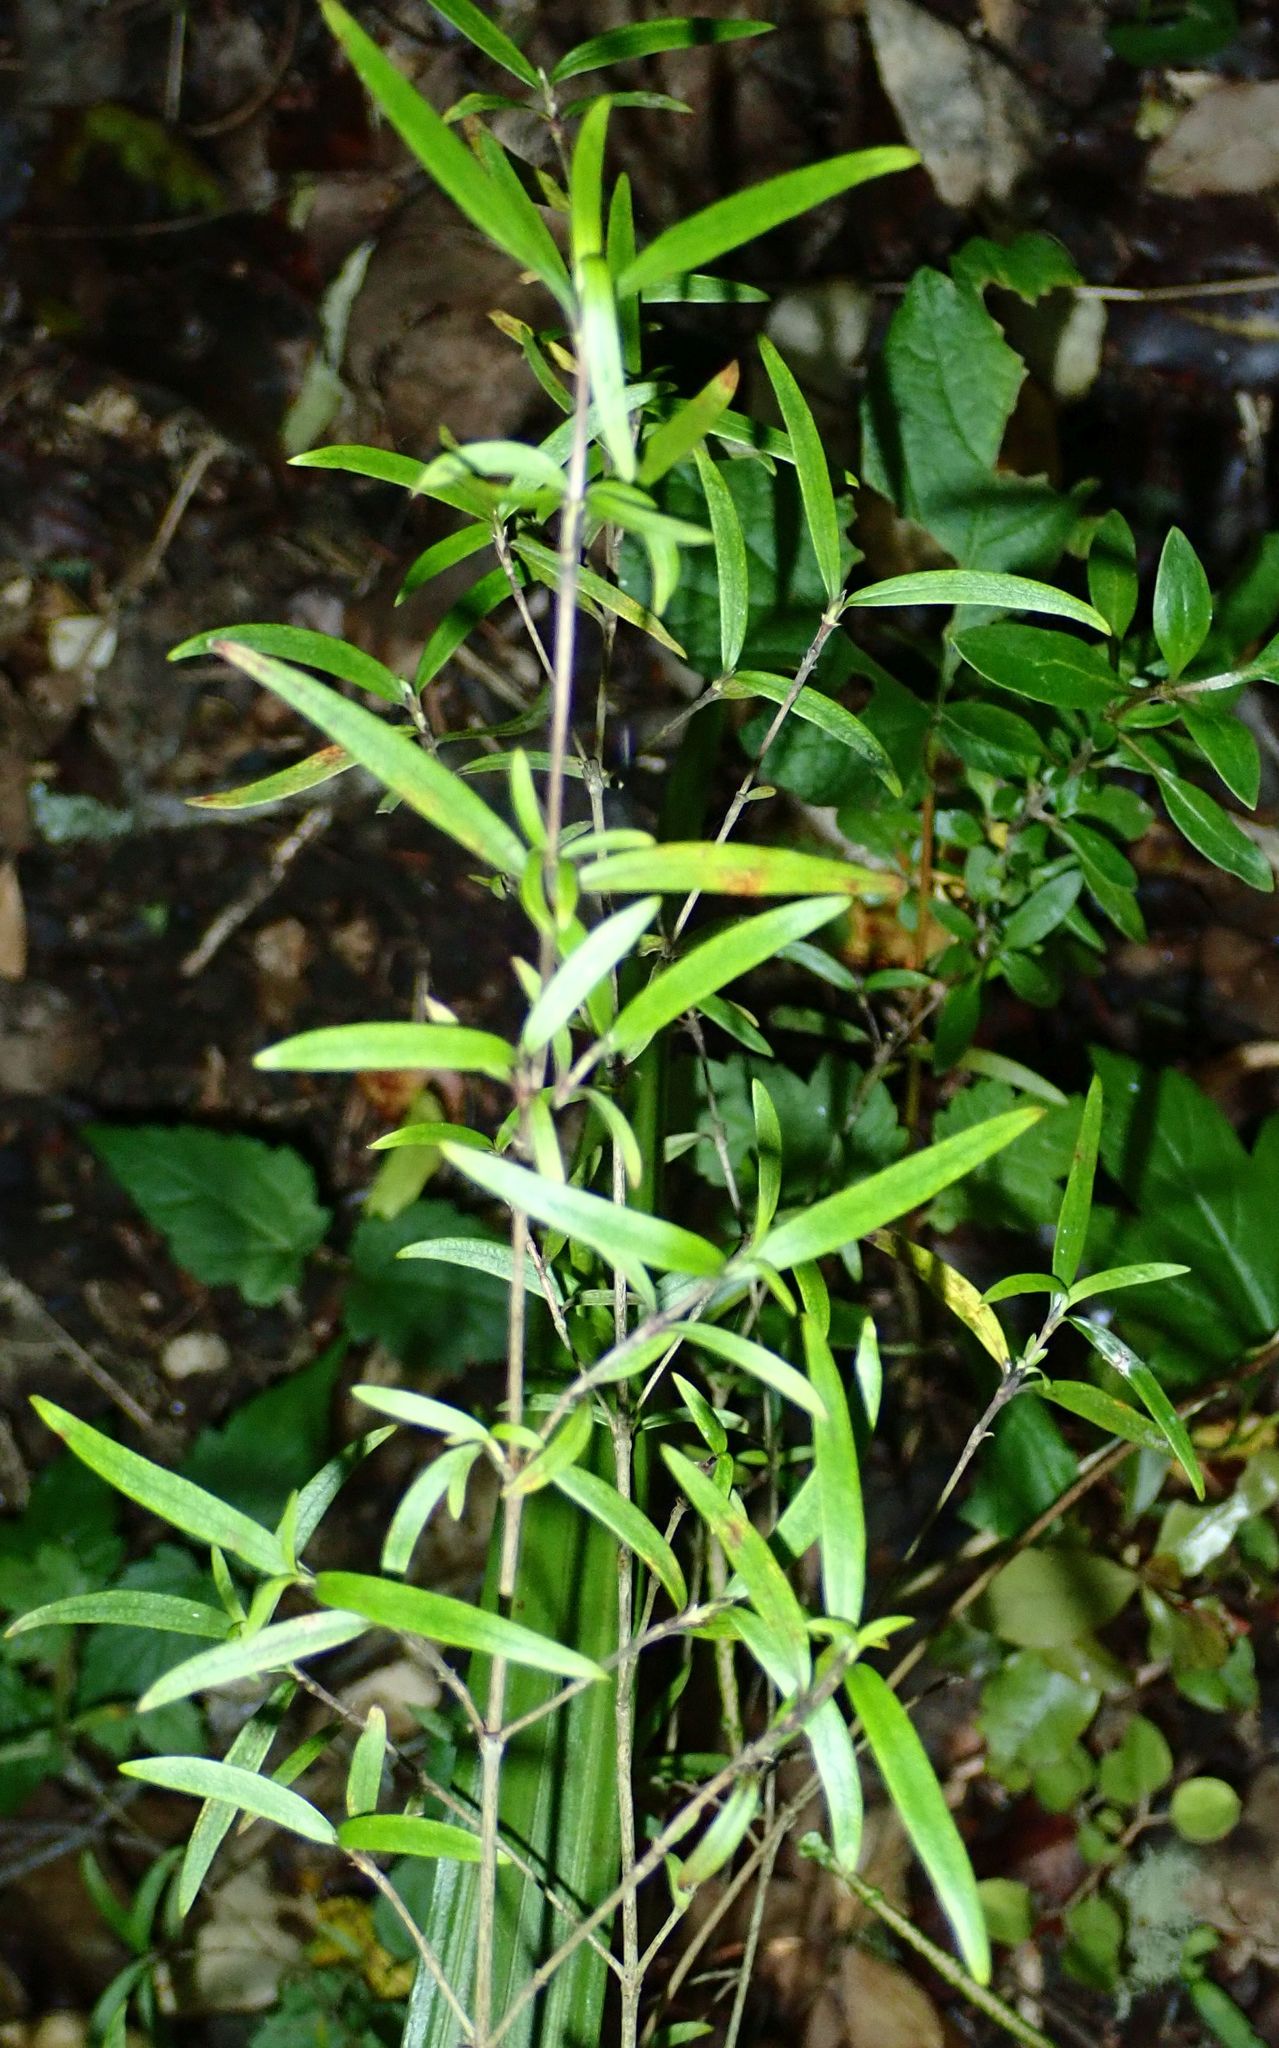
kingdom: Plantae
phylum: Tracheophyta
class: Magnoliopsida
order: Gentianales
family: Rubiaceae
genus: Coprosma
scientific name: Coprosma linariifolia
